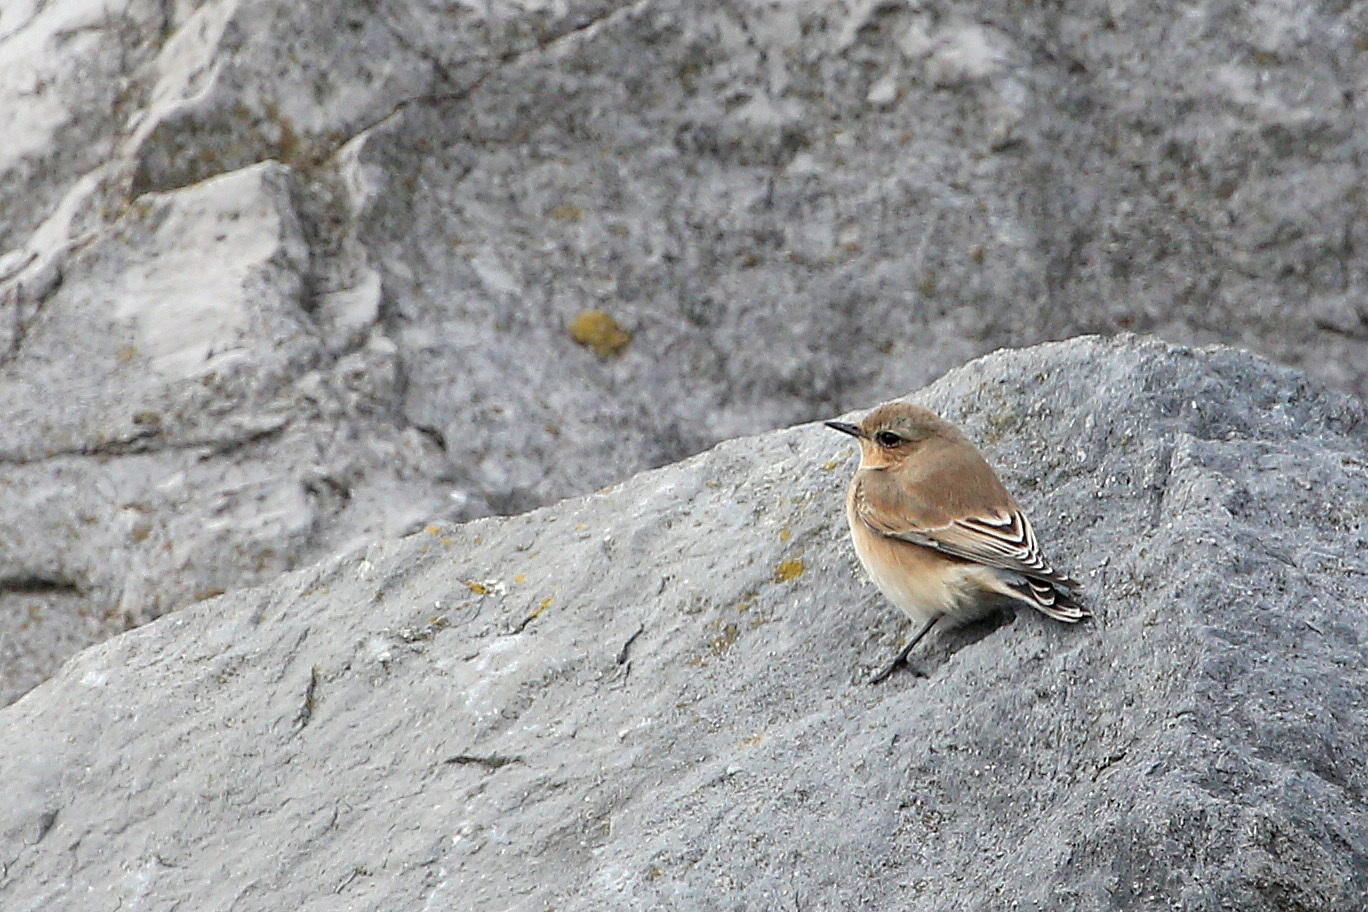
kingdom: Animalia
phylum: Chordata
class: Aves
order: Passeriformes
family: Muscicapidae
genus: Oenanthe
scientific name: Oenanthe oenanthe
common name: Northern wheatear
